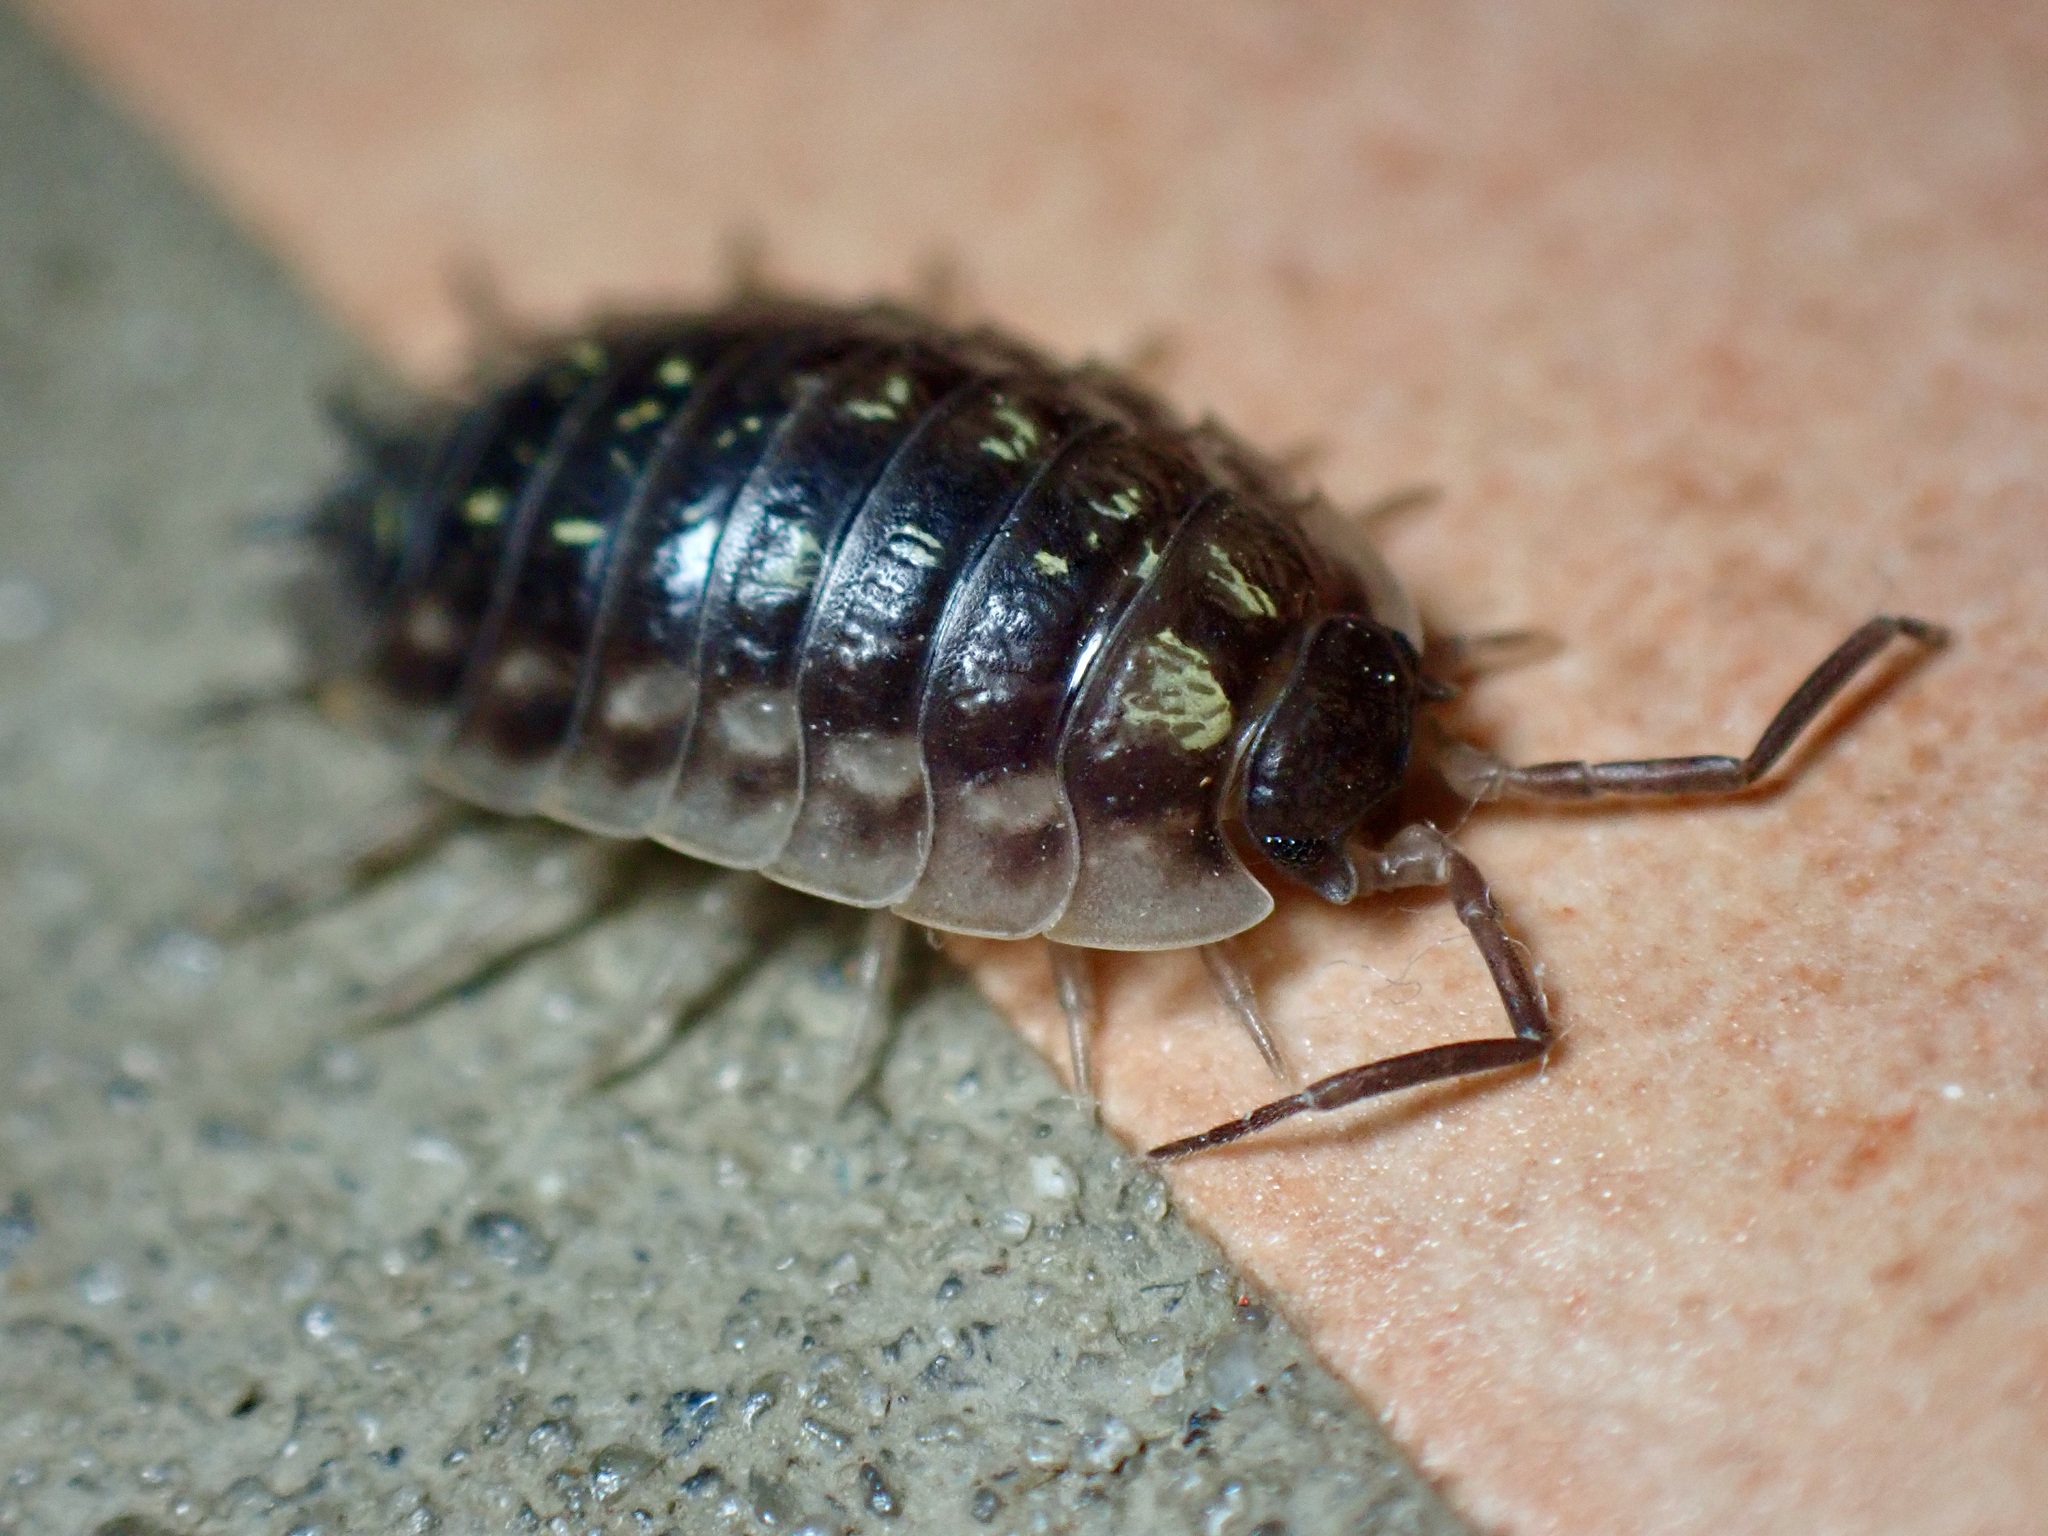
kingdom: Animalia
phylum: Arthropoda
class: Malacostraca
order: Isopoda
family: Oniscidae
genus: Oniscus
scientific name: Oniscus asellus
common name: Common shiny woodlouse
